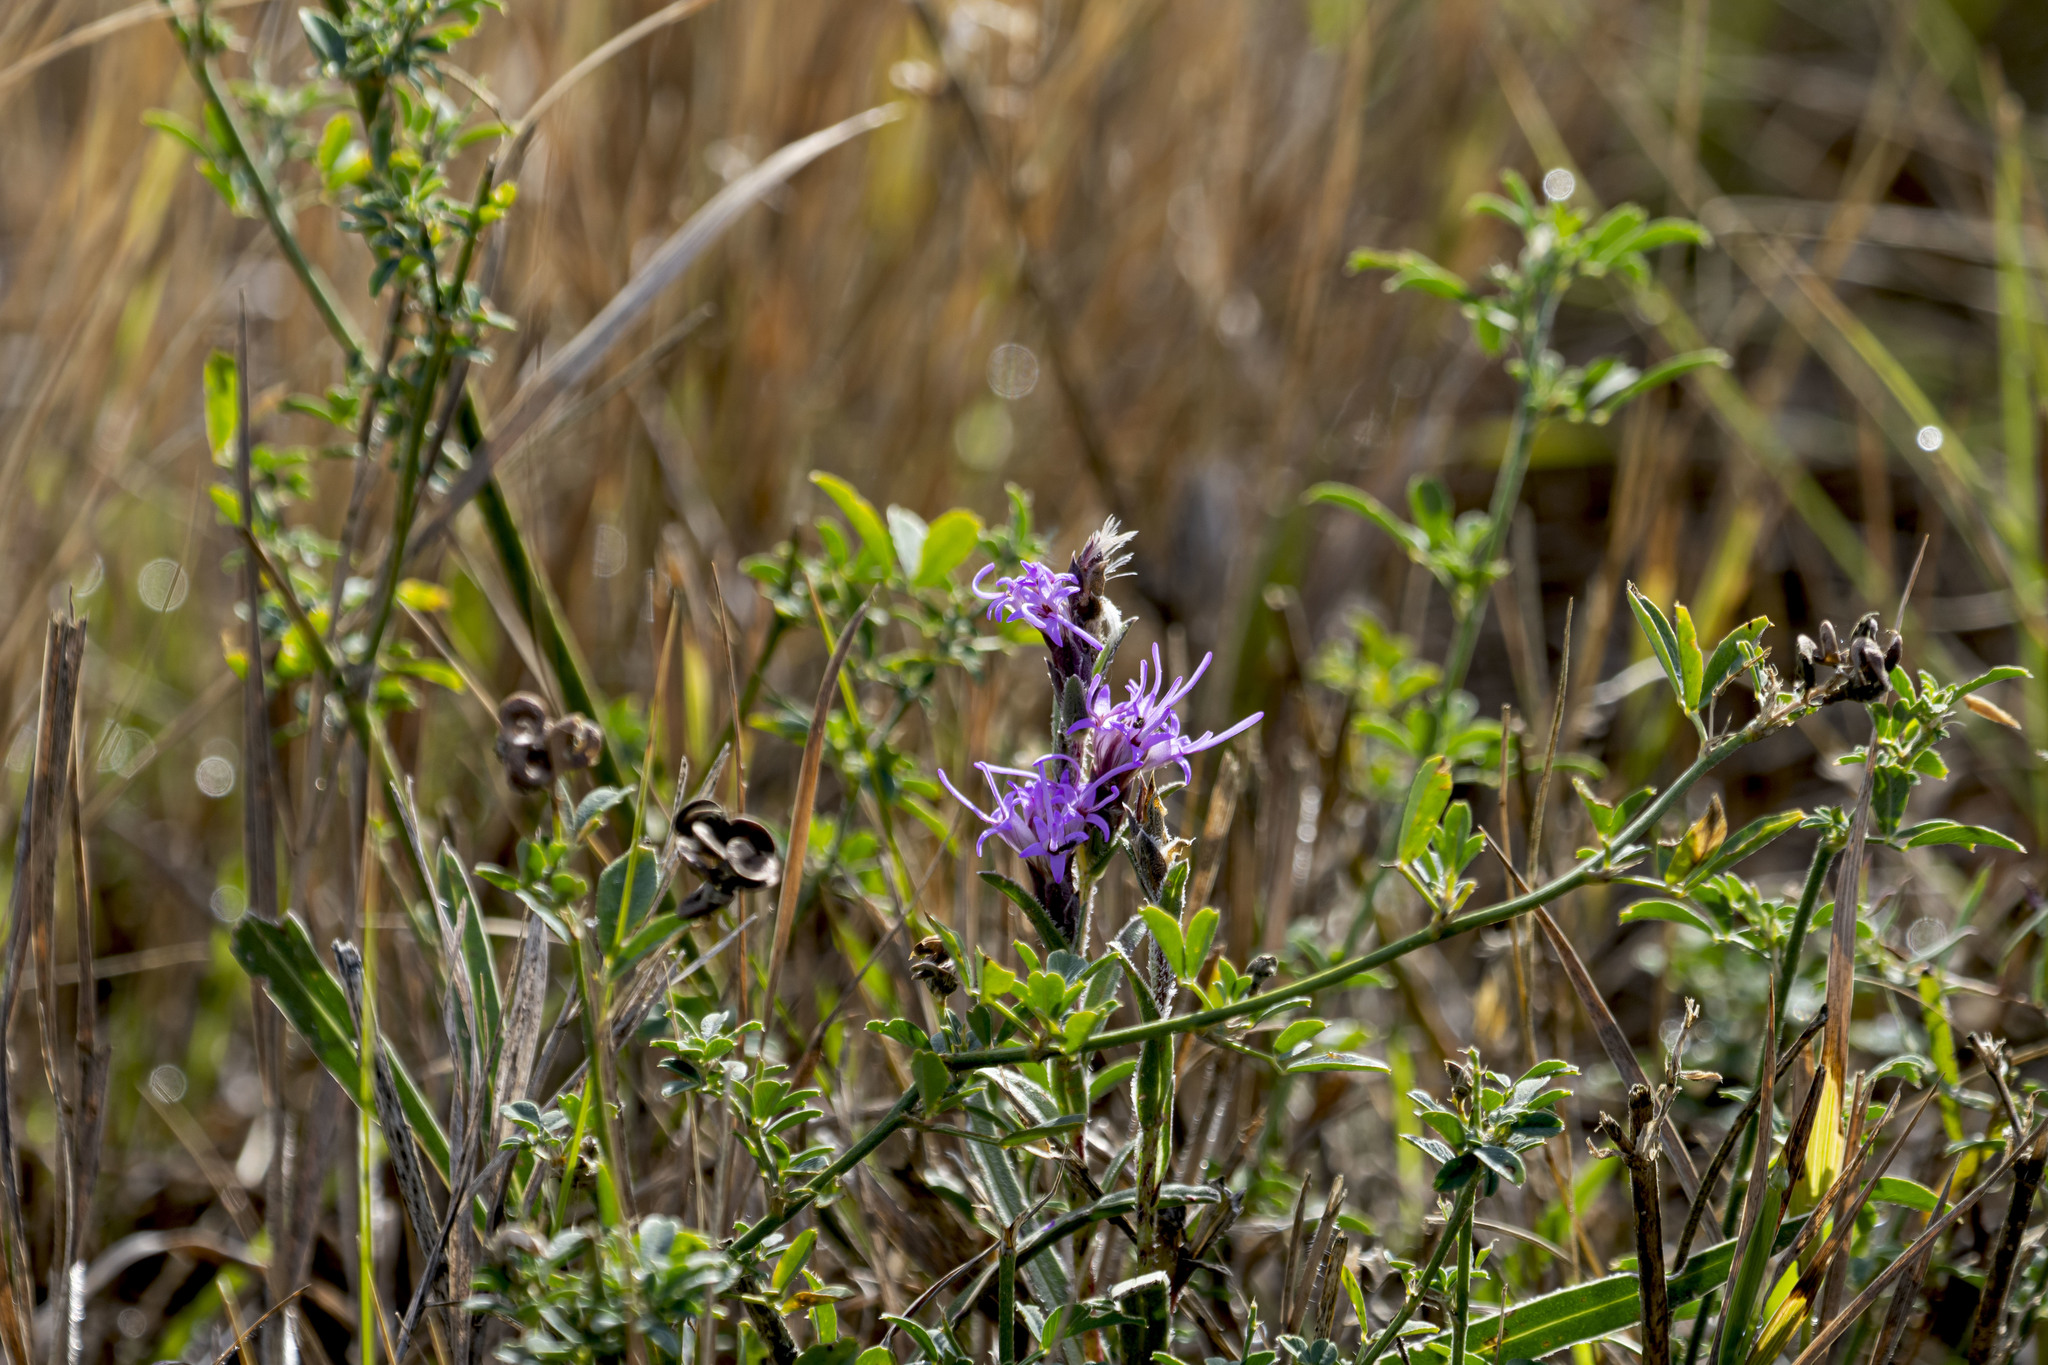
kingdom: Plantae
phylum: Tracheophyta
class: Magnoliopsida
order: Asterales
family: Asteraceae
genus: Liatris
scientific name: Liatris punctata
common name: Dotted gayfeather
